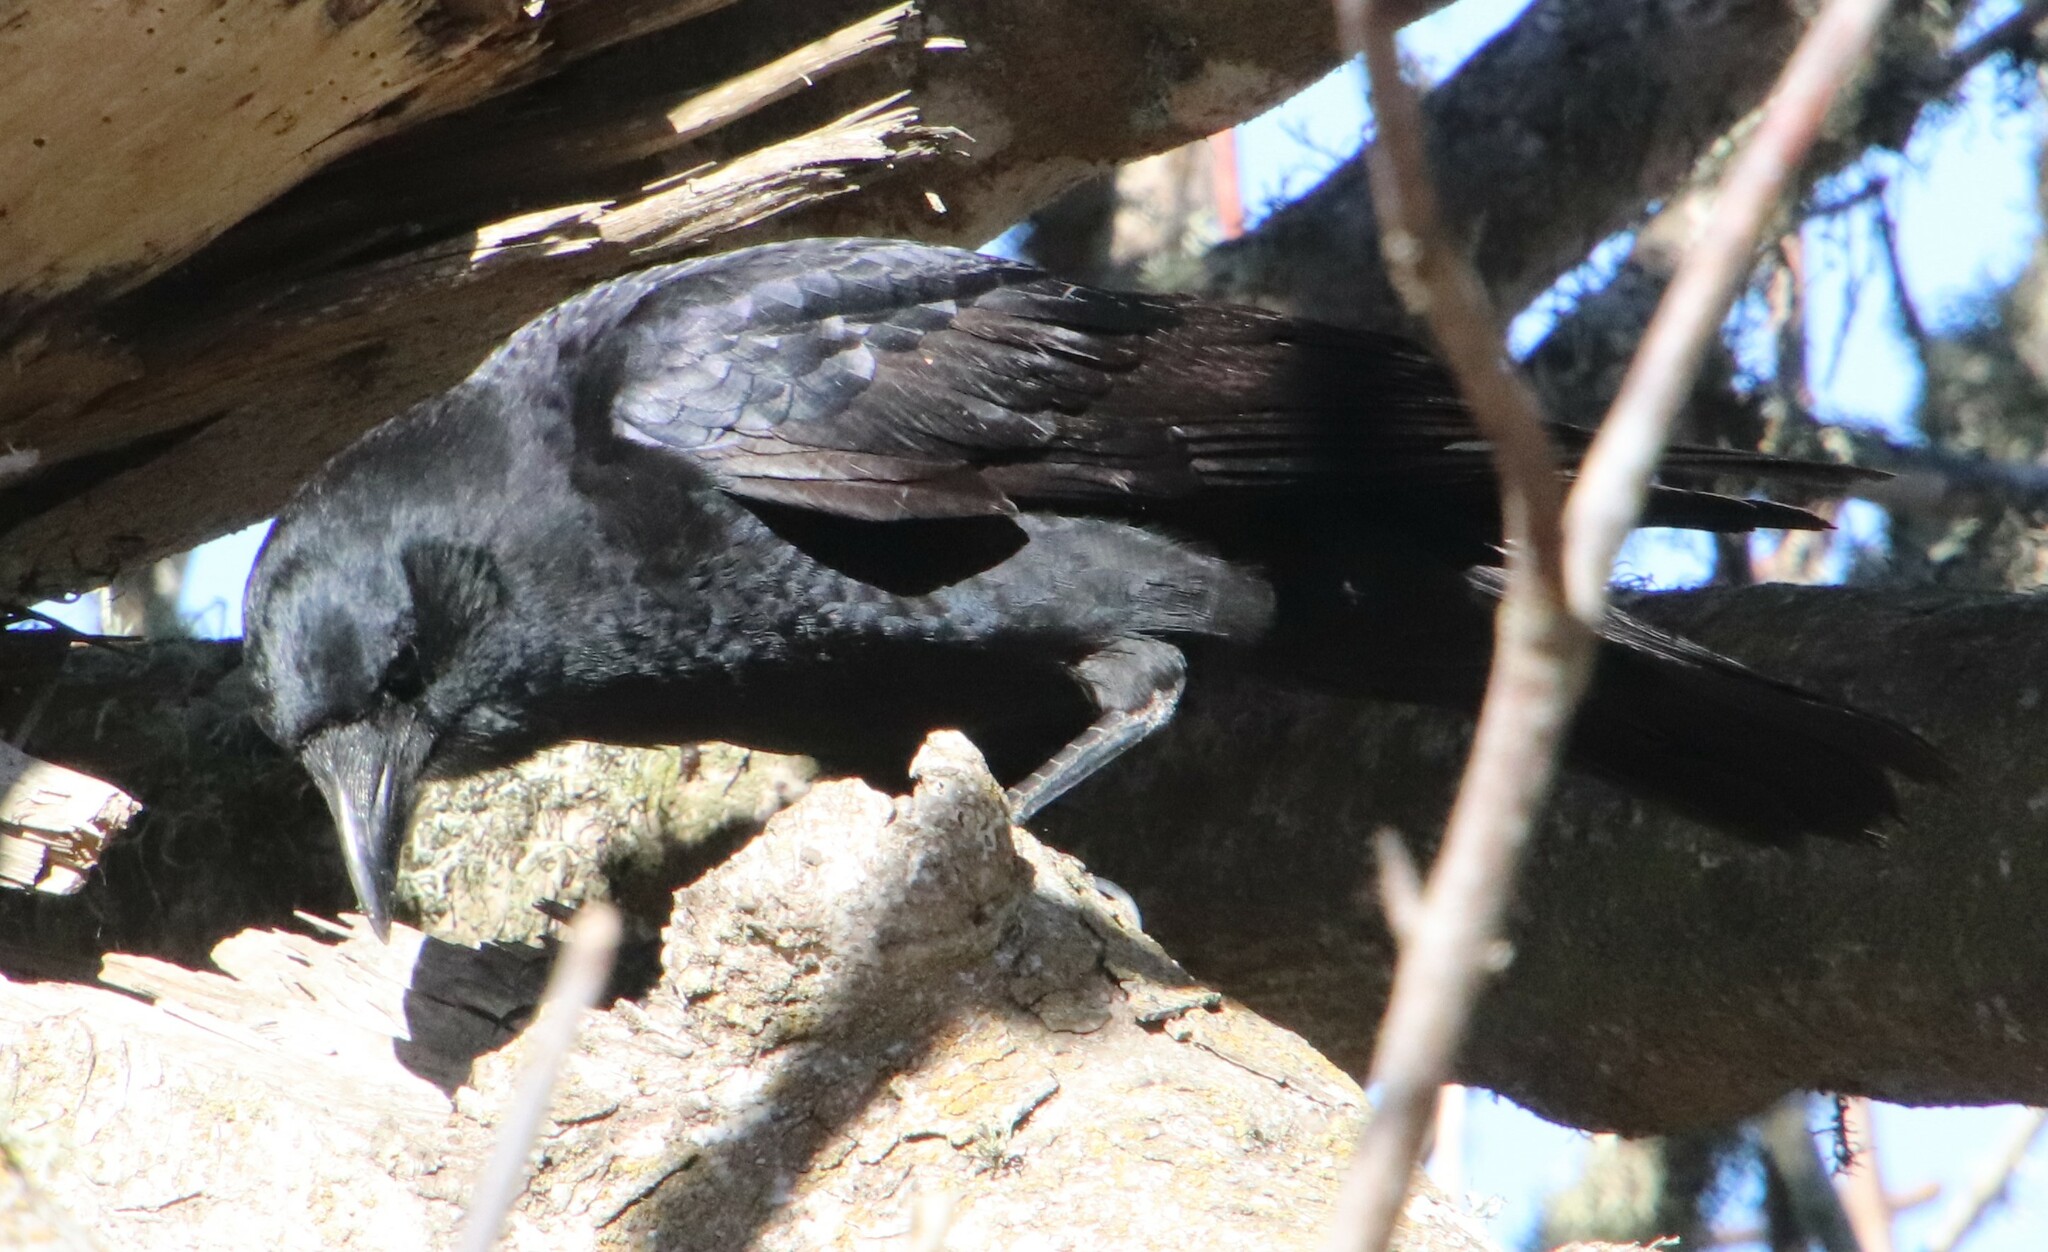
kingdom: Animalia
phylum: Chordata
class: Aves
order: Passeriformes
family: Corvidae
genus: Corvus
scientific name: Corvus brachyrhynchos
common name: American crow
